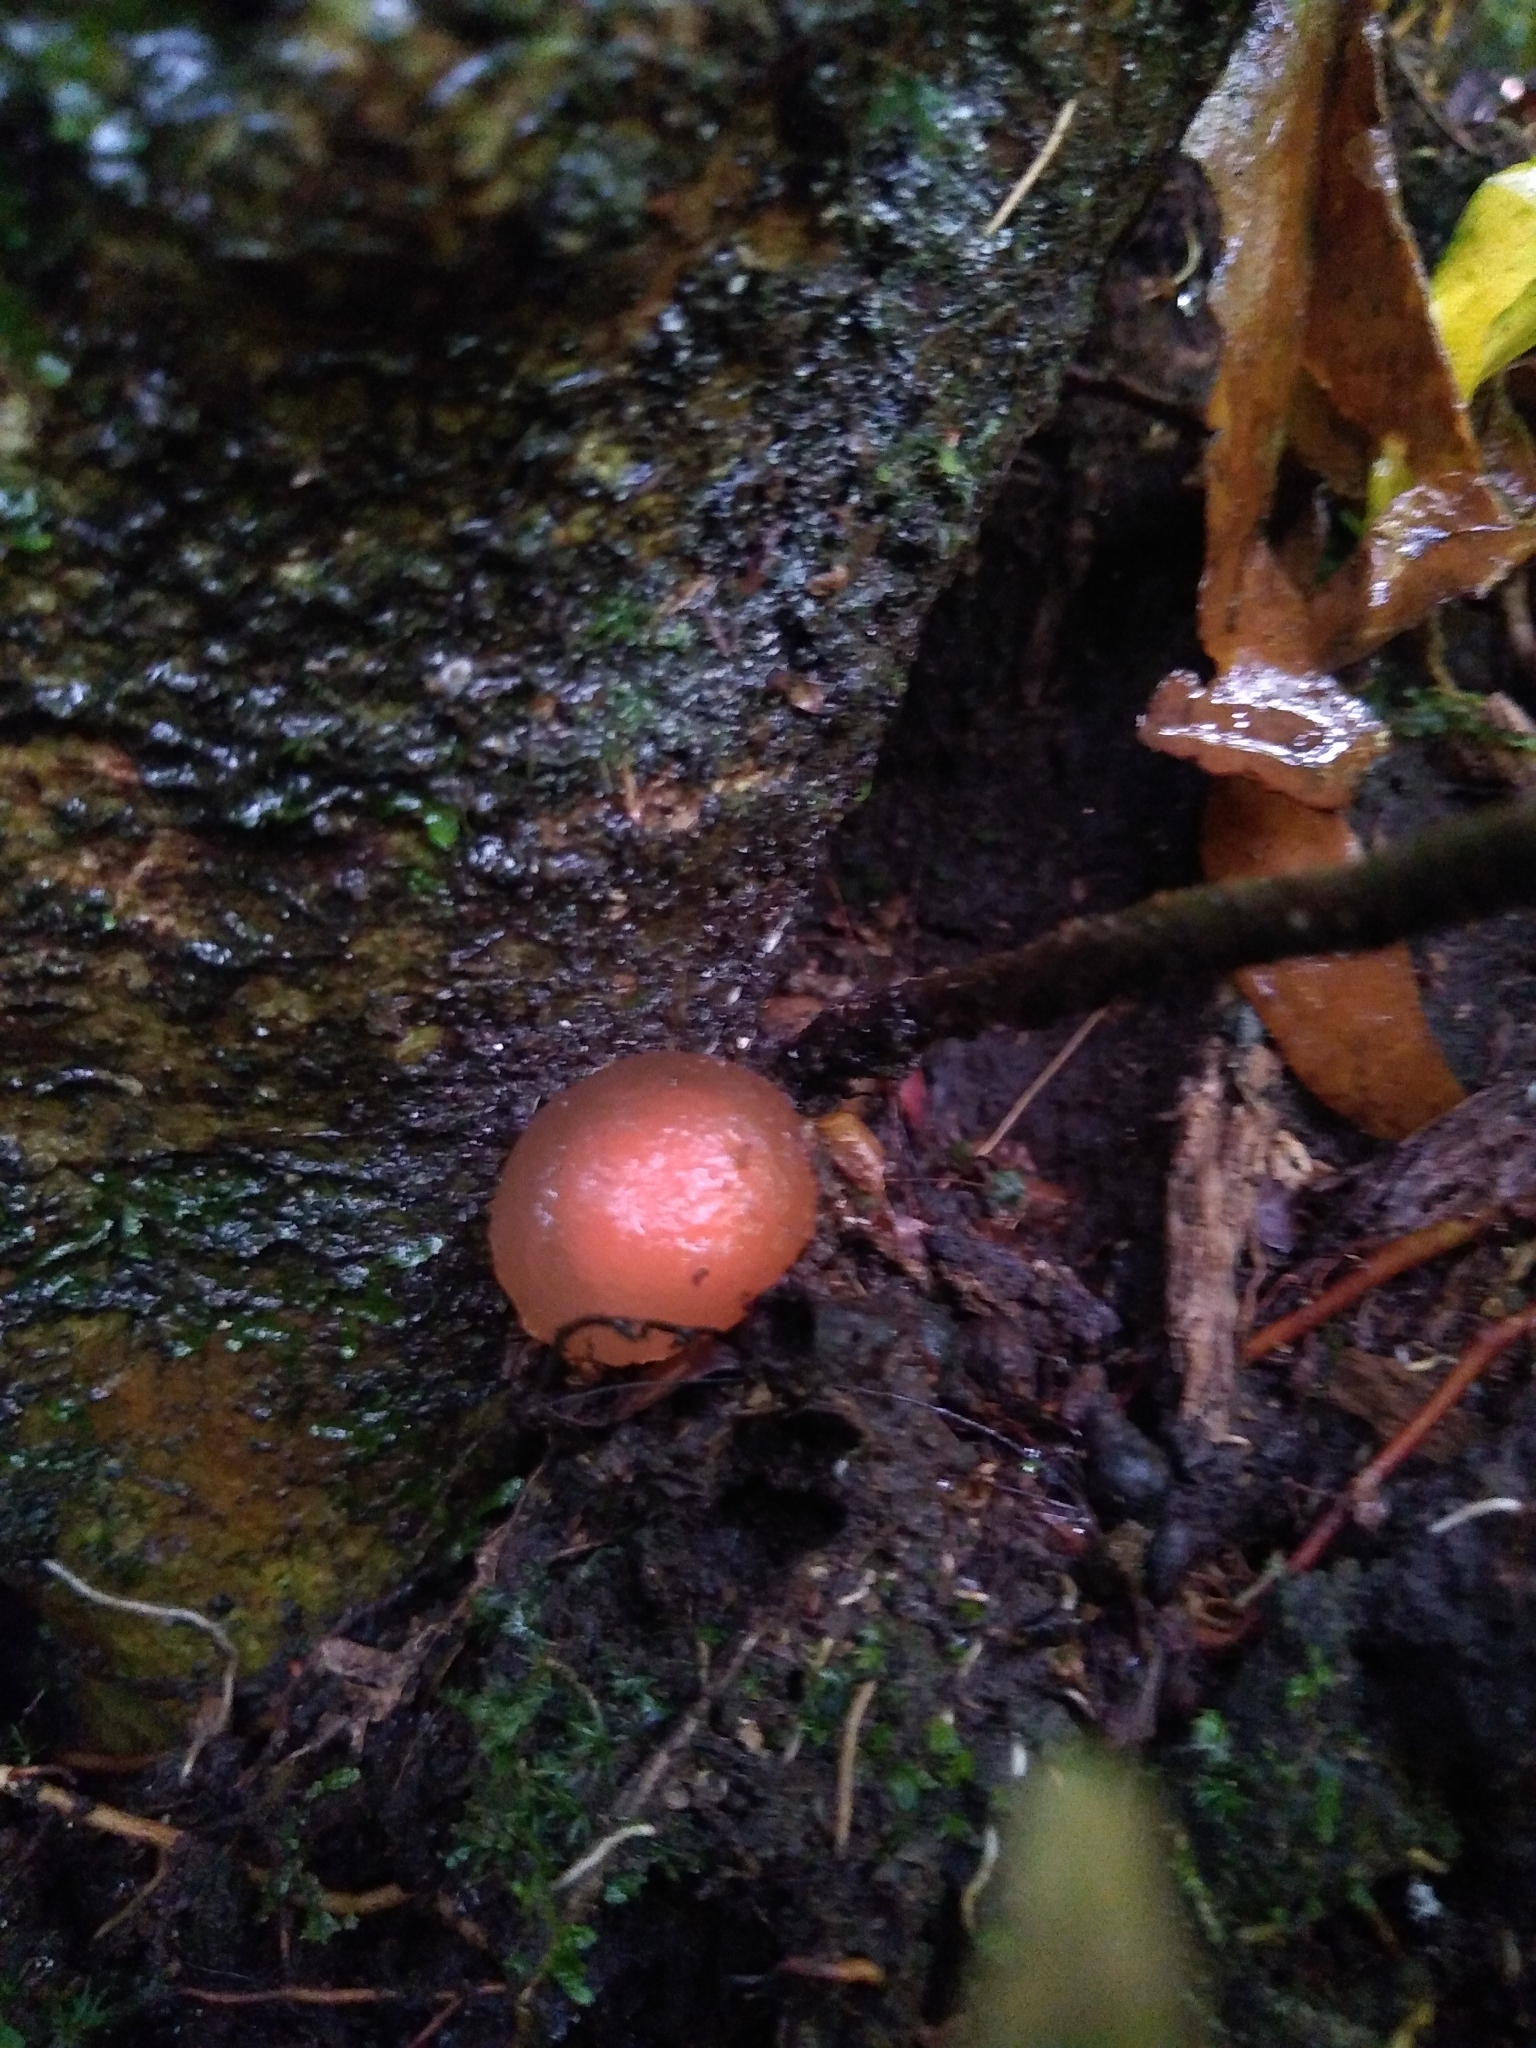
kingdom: Fungi
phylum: Basidiomycota
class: Agaricomycetes
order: Boletales
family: Calostomataceae
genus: Calostoma
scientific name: Calostoma cinnabarinum
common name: Stalked puffball-in-aspic
